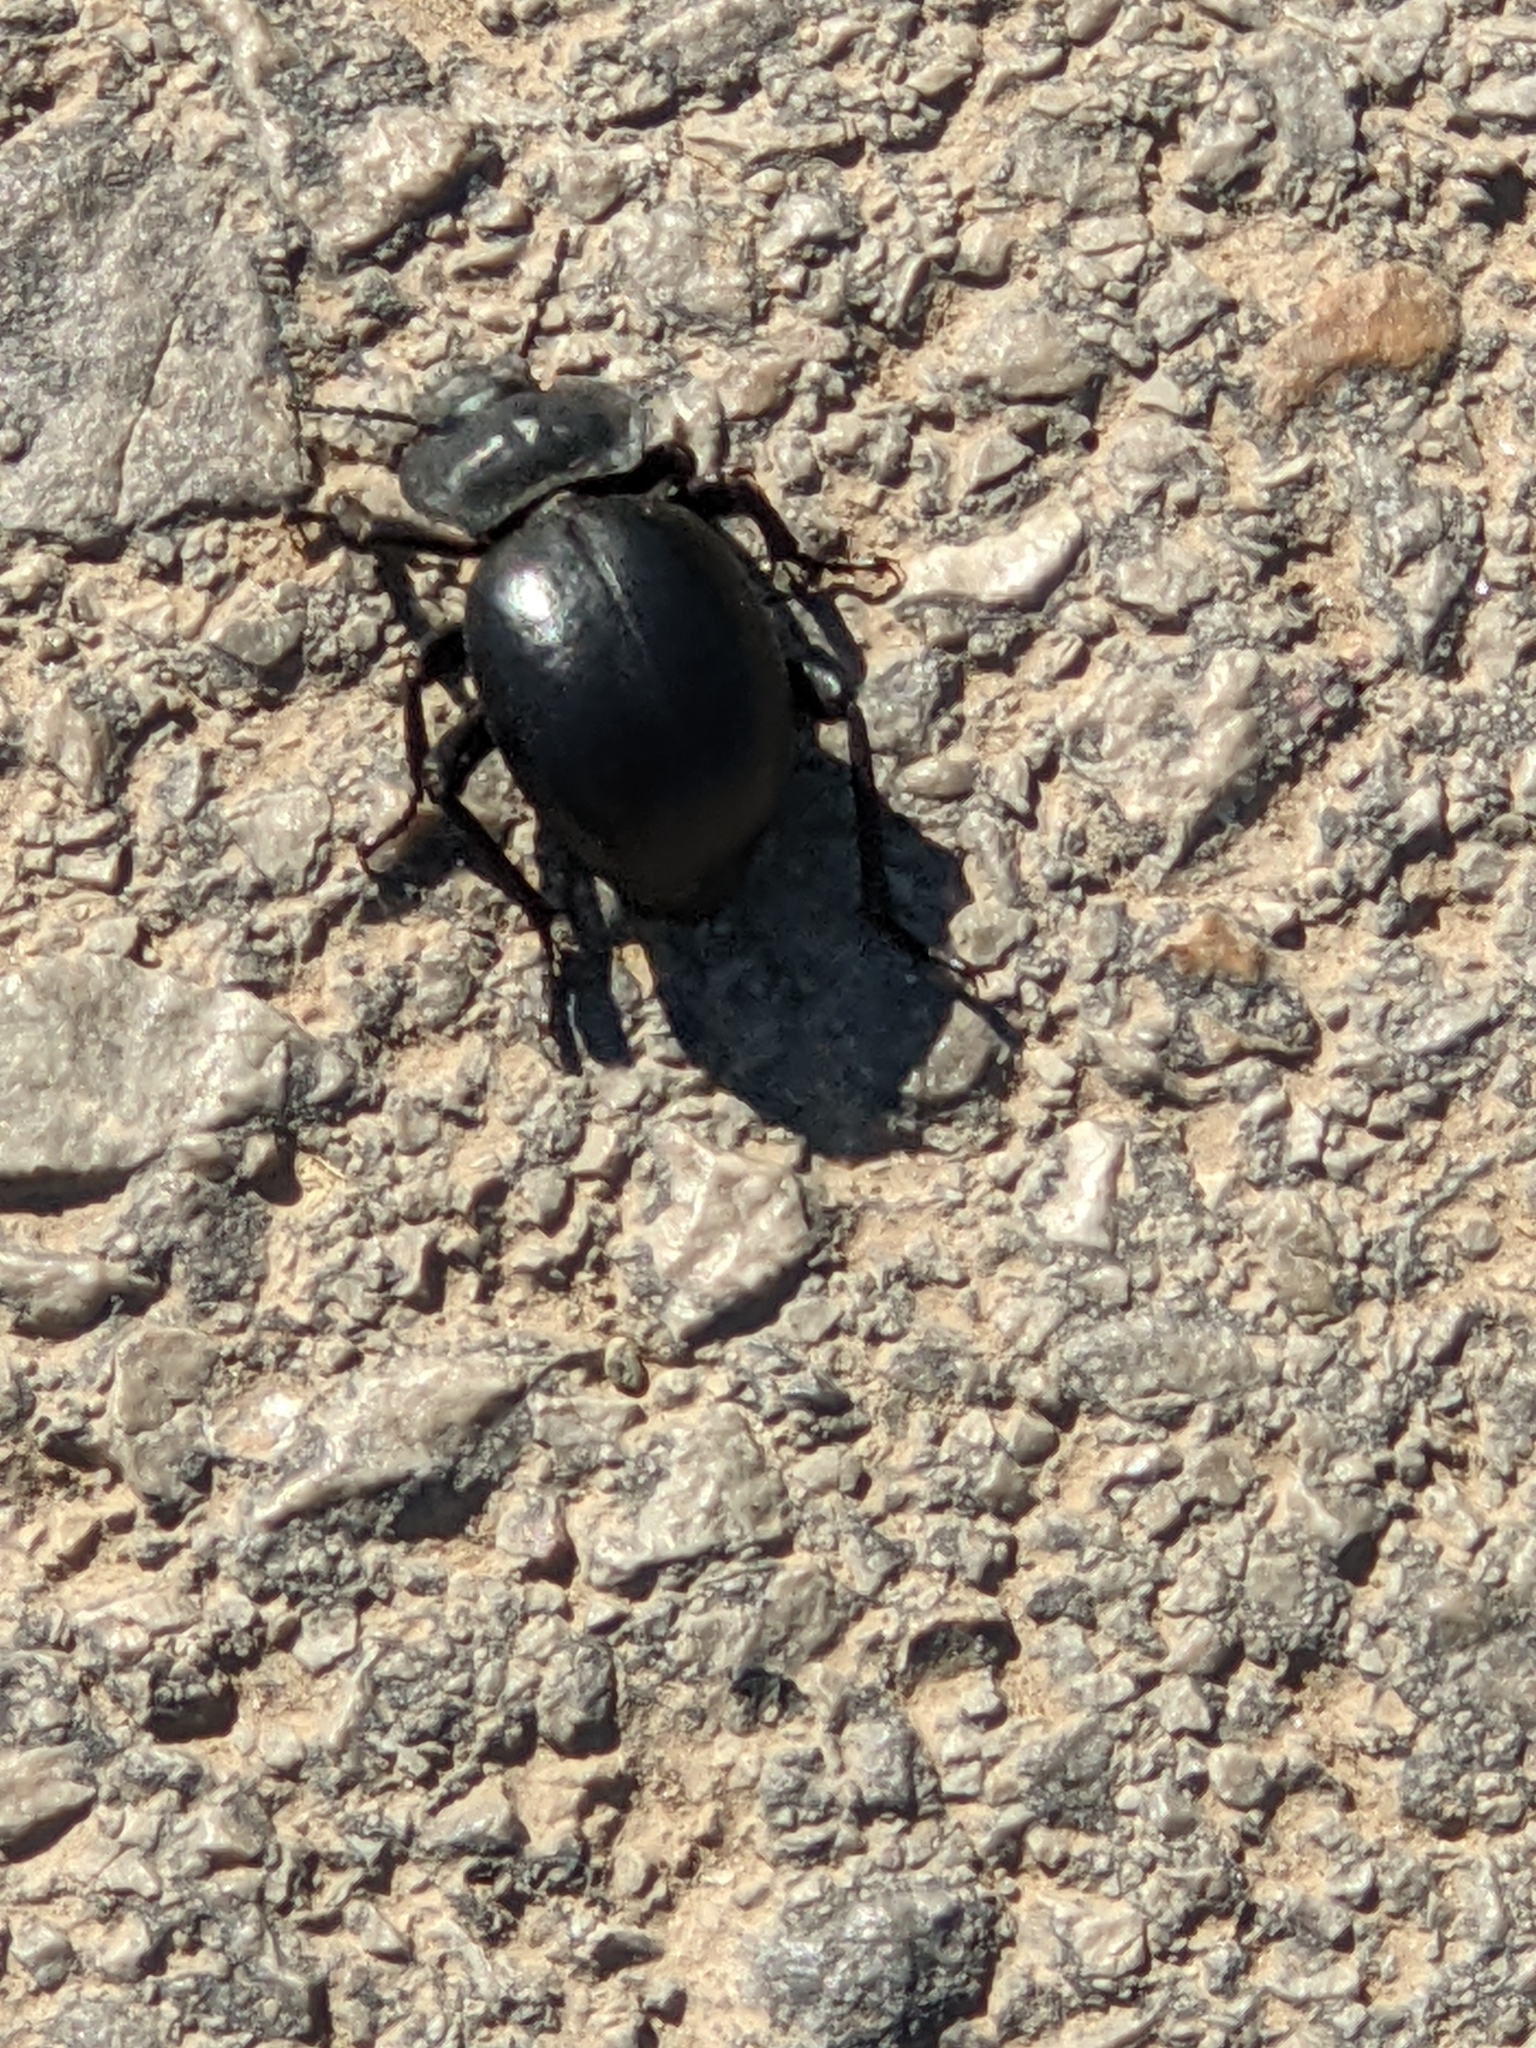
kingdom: Animalia
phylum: Arthropoda
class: Insecta
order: Coleoptera
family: Tenebrionidae
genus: Morica
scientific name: Morica planata
